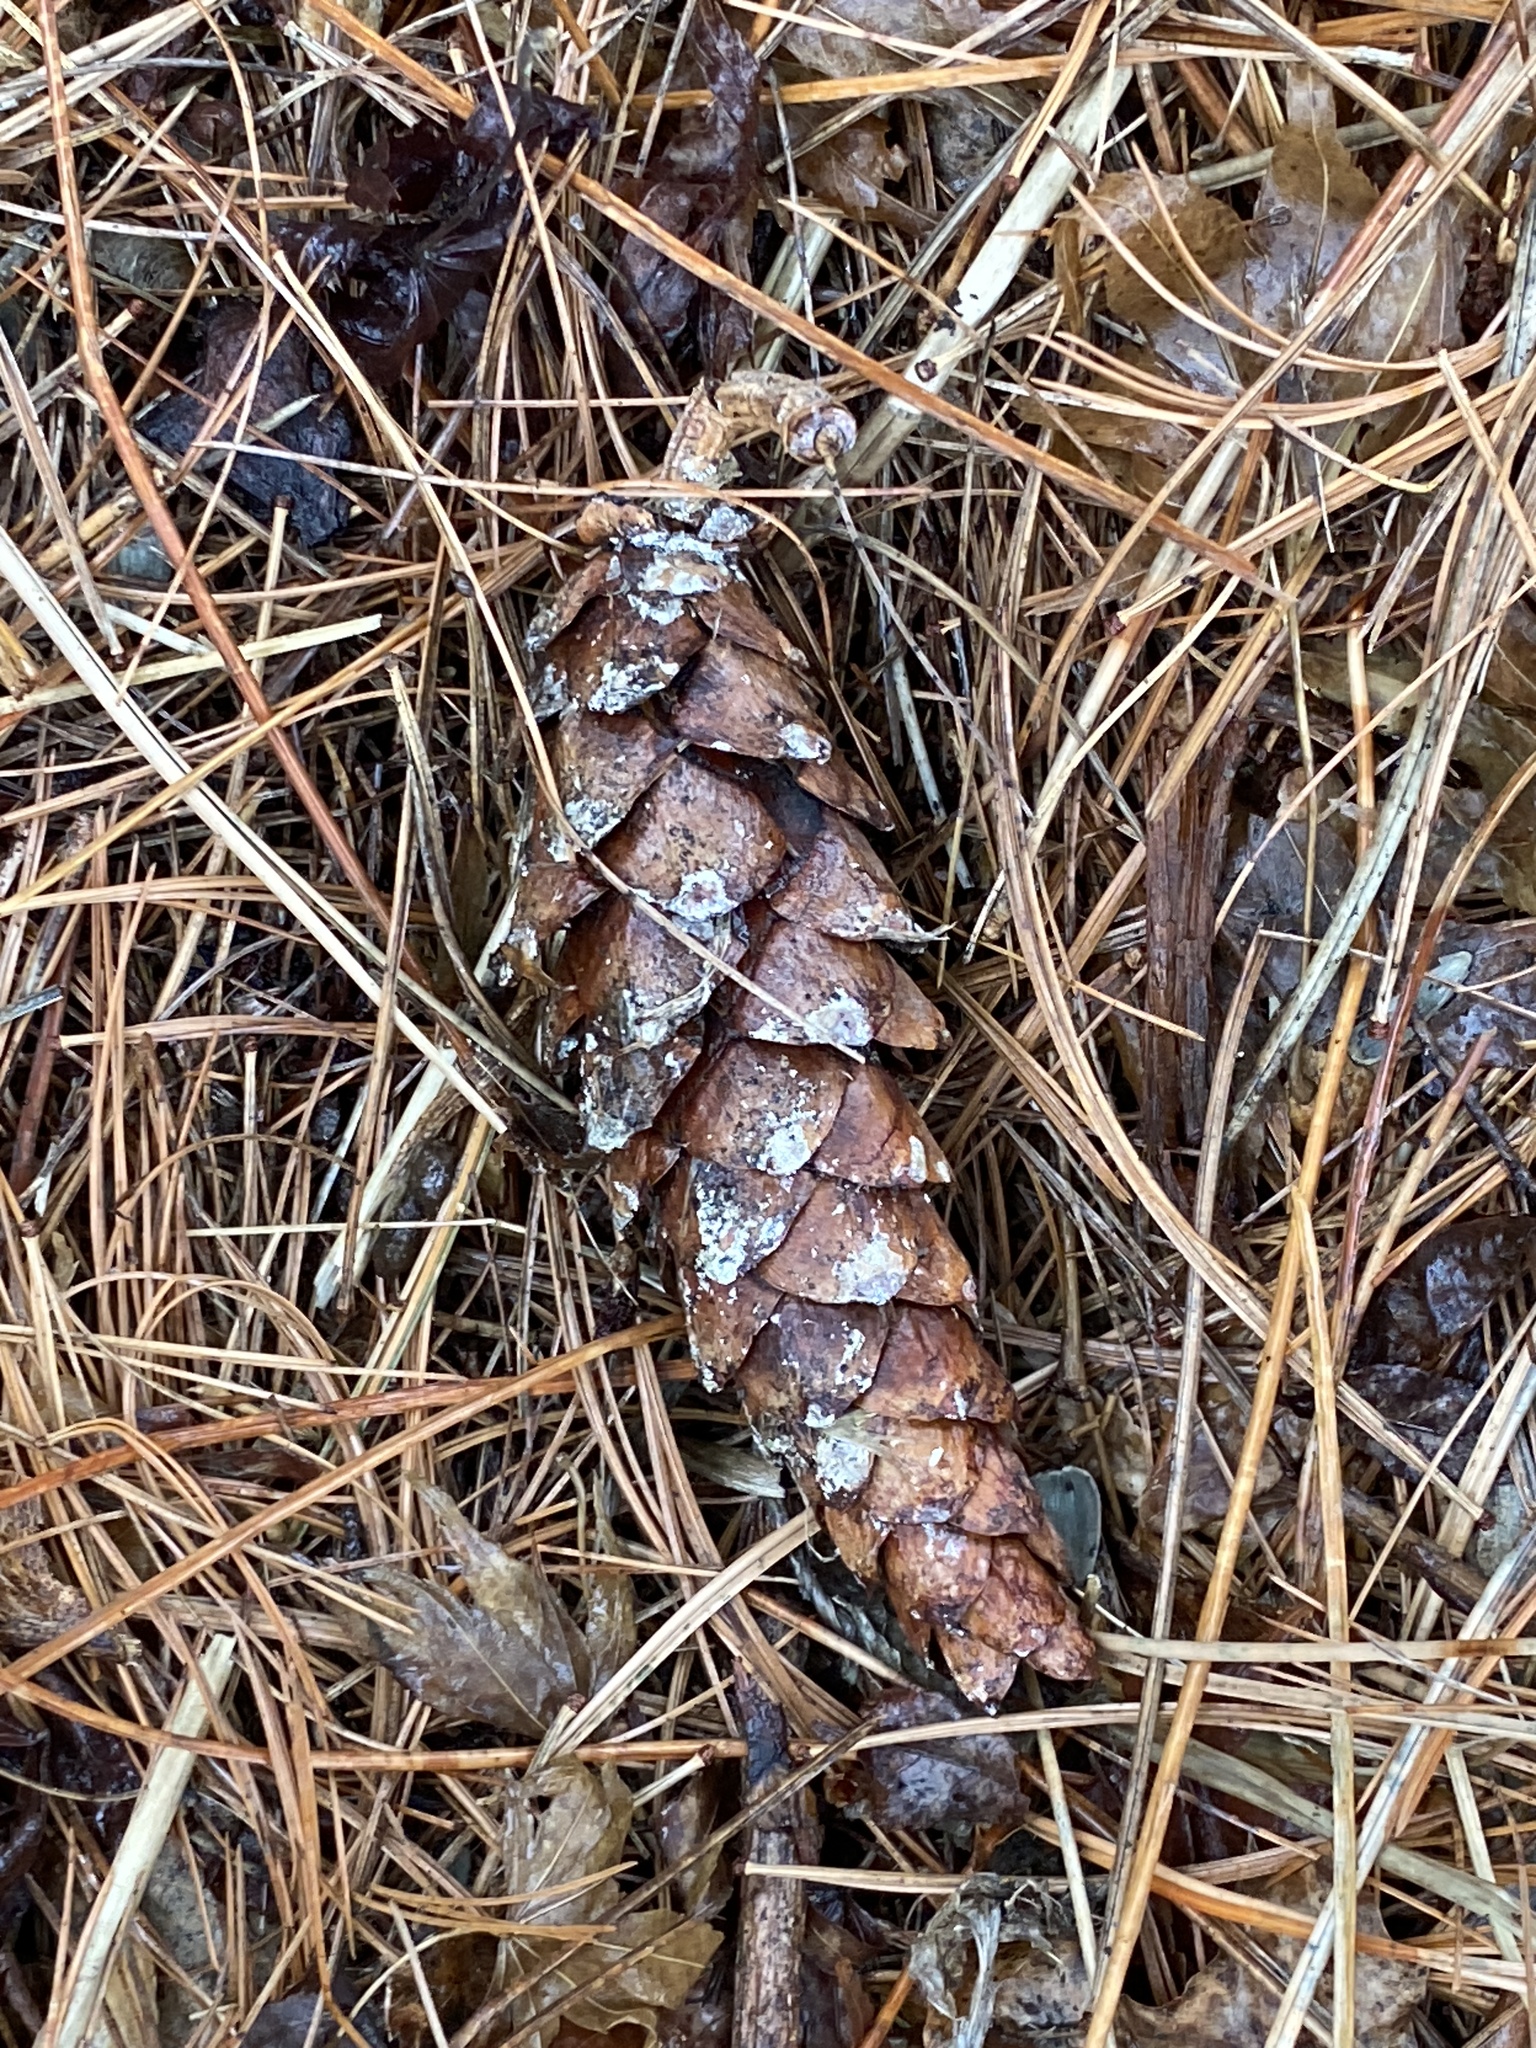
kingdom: Plantae
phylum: Tracheophyta
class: Pinopsida
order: Pinales
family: Pinaceae
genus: Pinus
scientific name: Pinus strobus
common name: Weymouth pine
